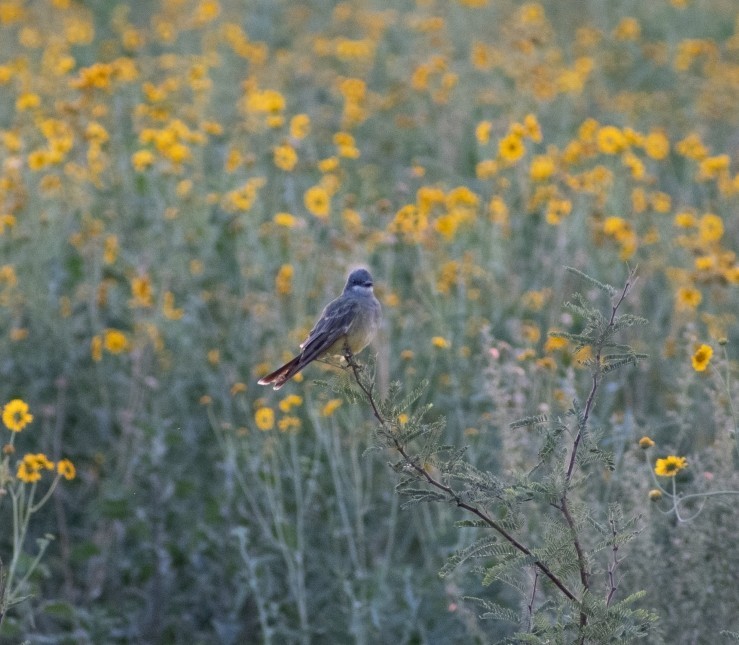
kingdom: Animalia
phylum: Chordata
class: Aves
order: Passeriformes
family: Tyrannidae
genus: Tyrannus
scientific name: Tyrannus vociferans
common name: Cassin's kingbird
